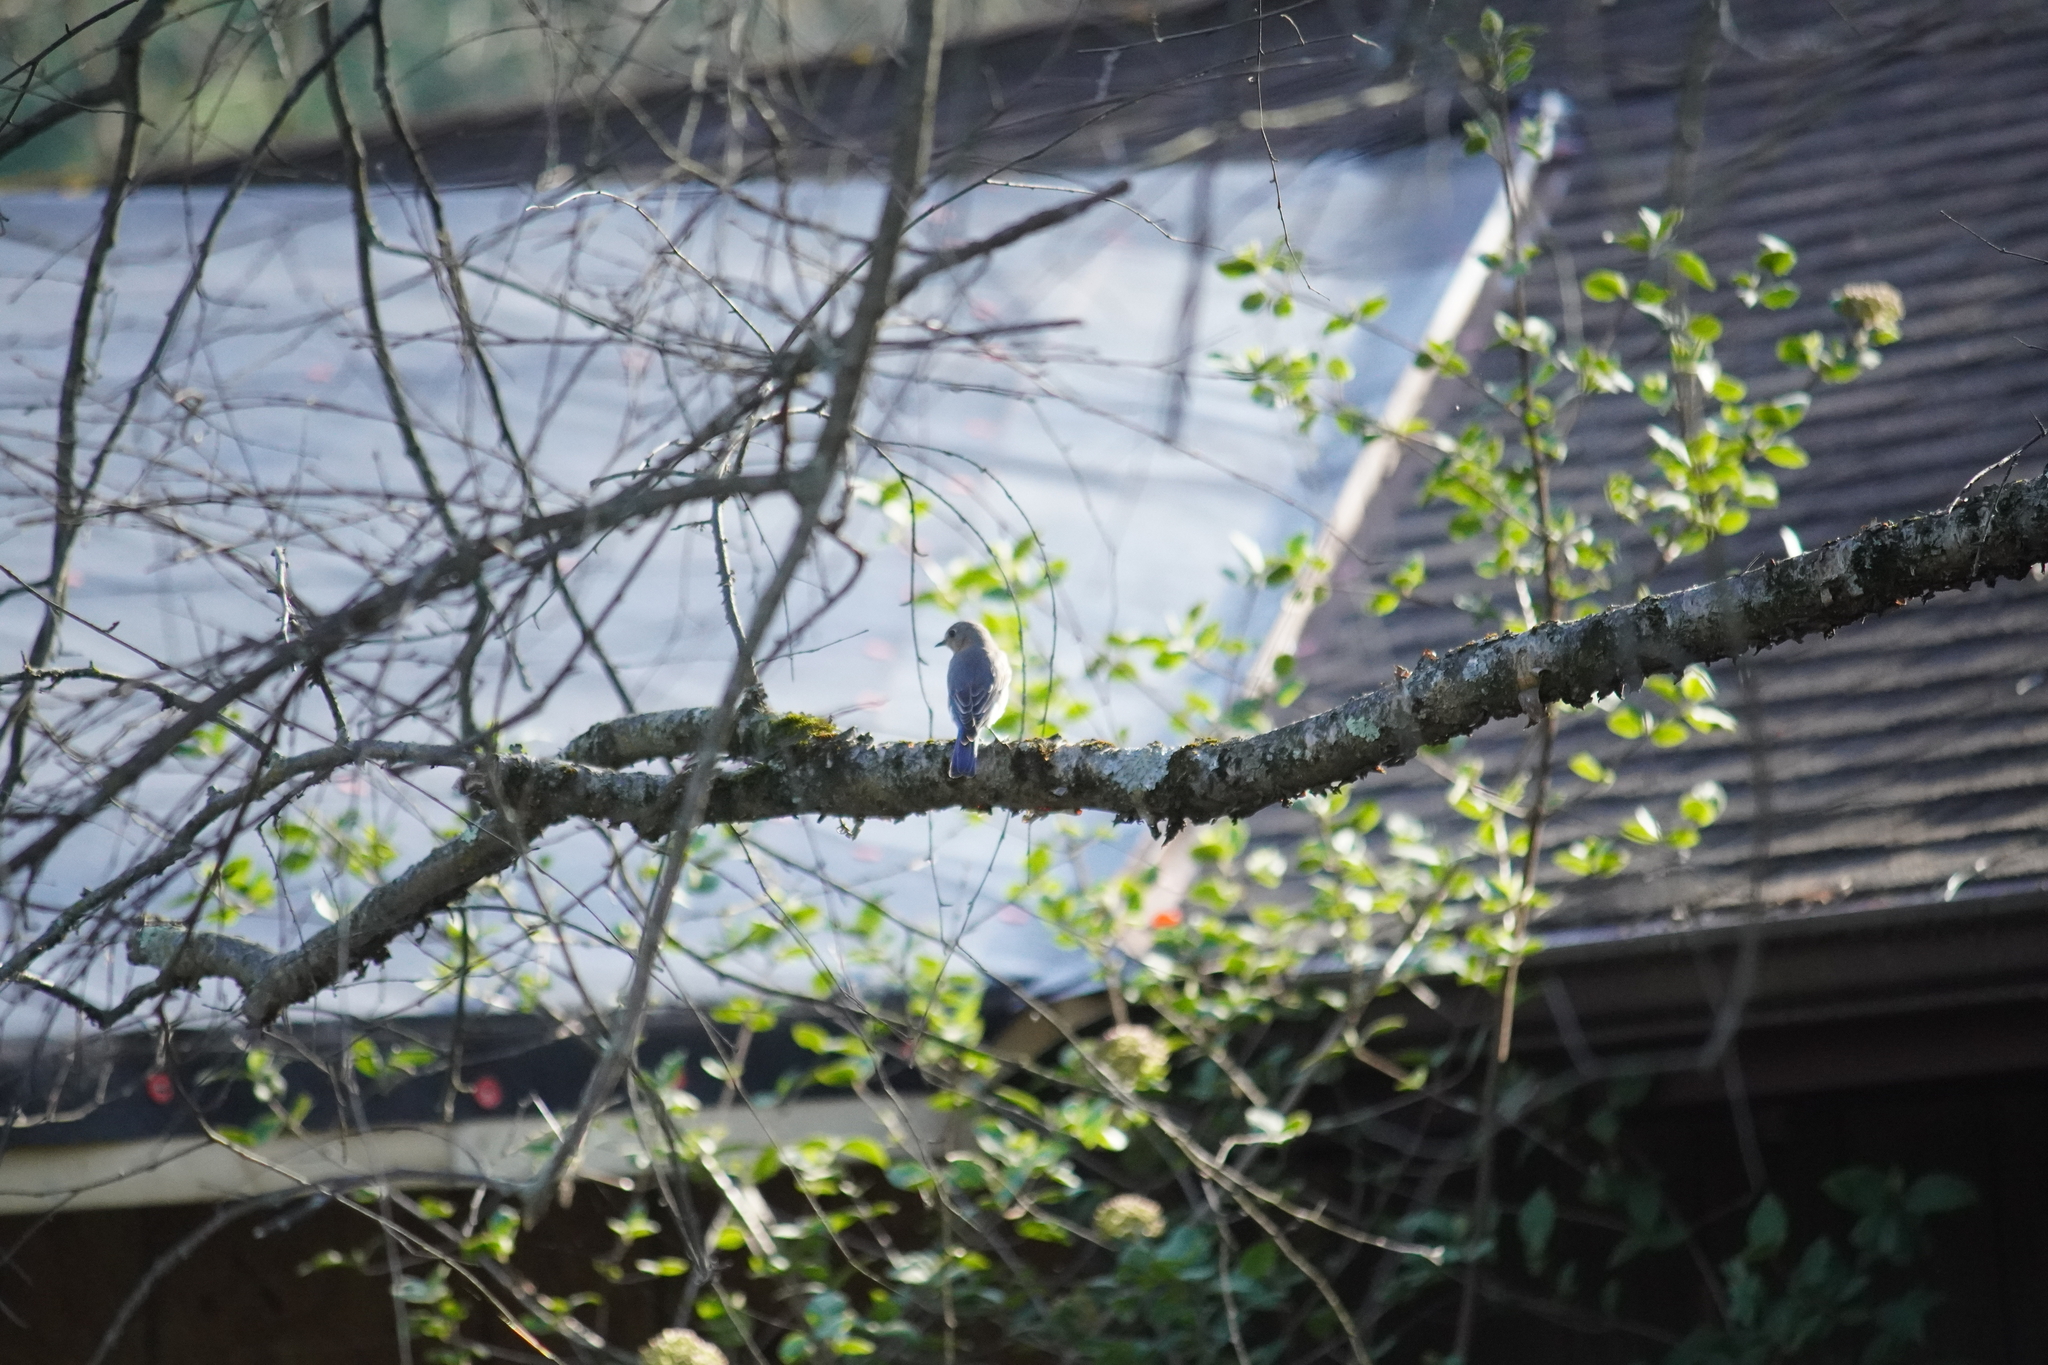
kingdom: Animalia
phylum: Chordata
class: Aves
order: Passeriformes
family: Turdidae
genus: Sialia
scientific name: Sialia sialis
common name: Eastern bluebird
